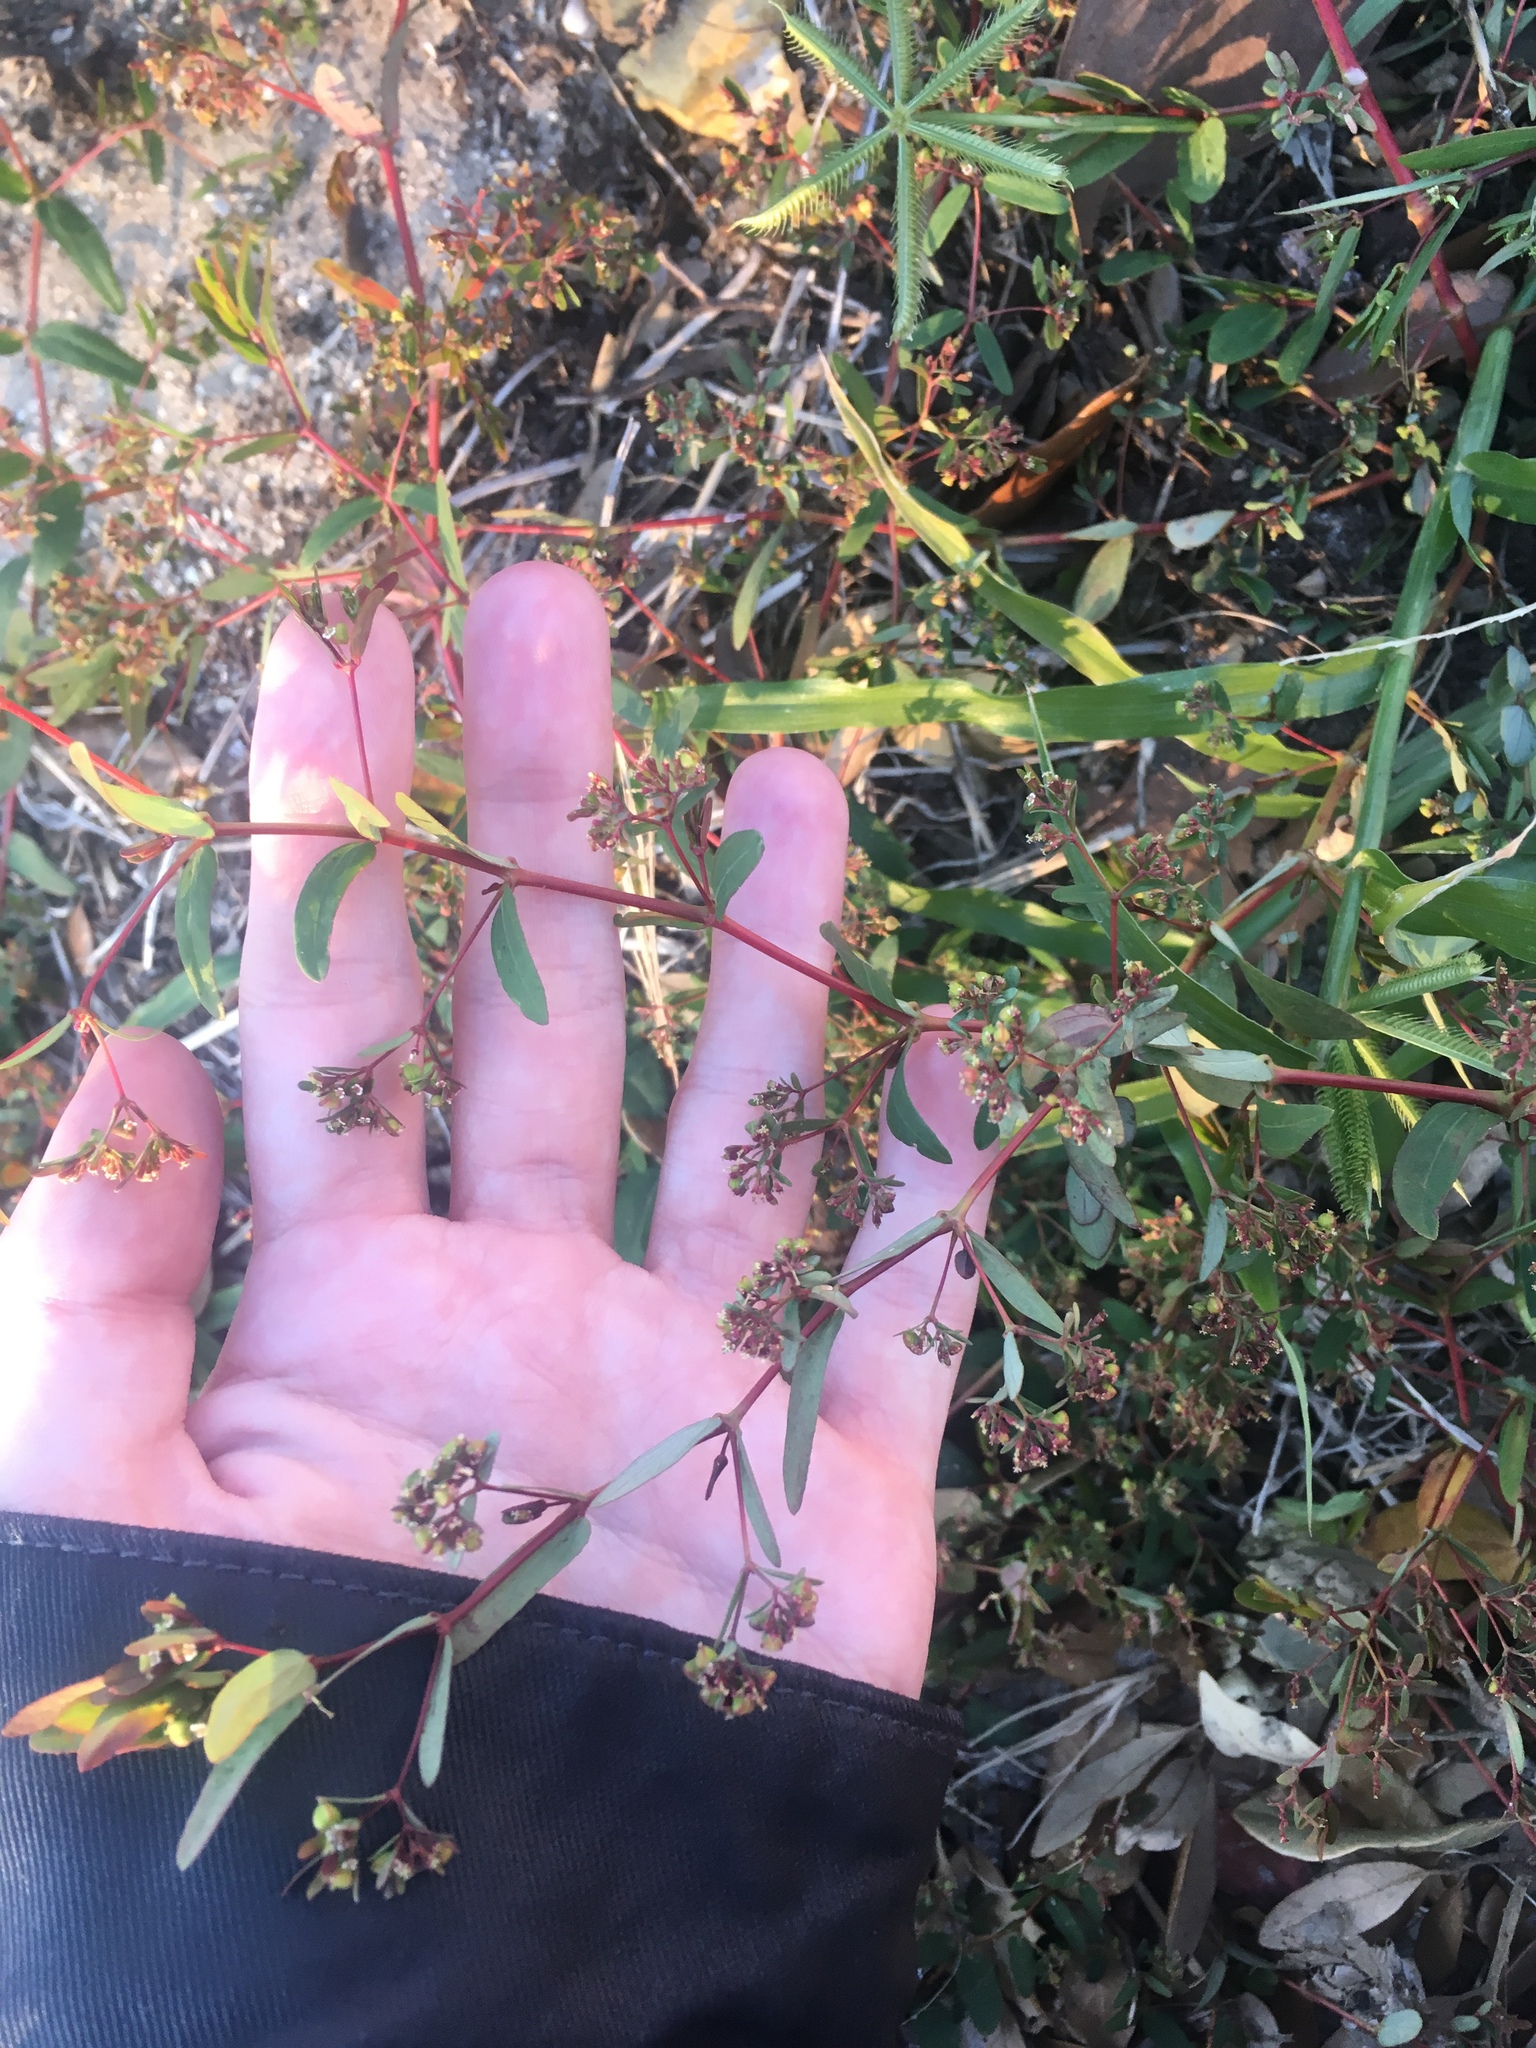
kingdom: Plantae
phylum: Tracheophyta
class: Magnoliopsida
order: Malpighiales
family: Euphorbiaceae
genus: Euphorbia
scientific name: Euphorbia hyssopifolia
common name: Hyssopleaf sandmat
